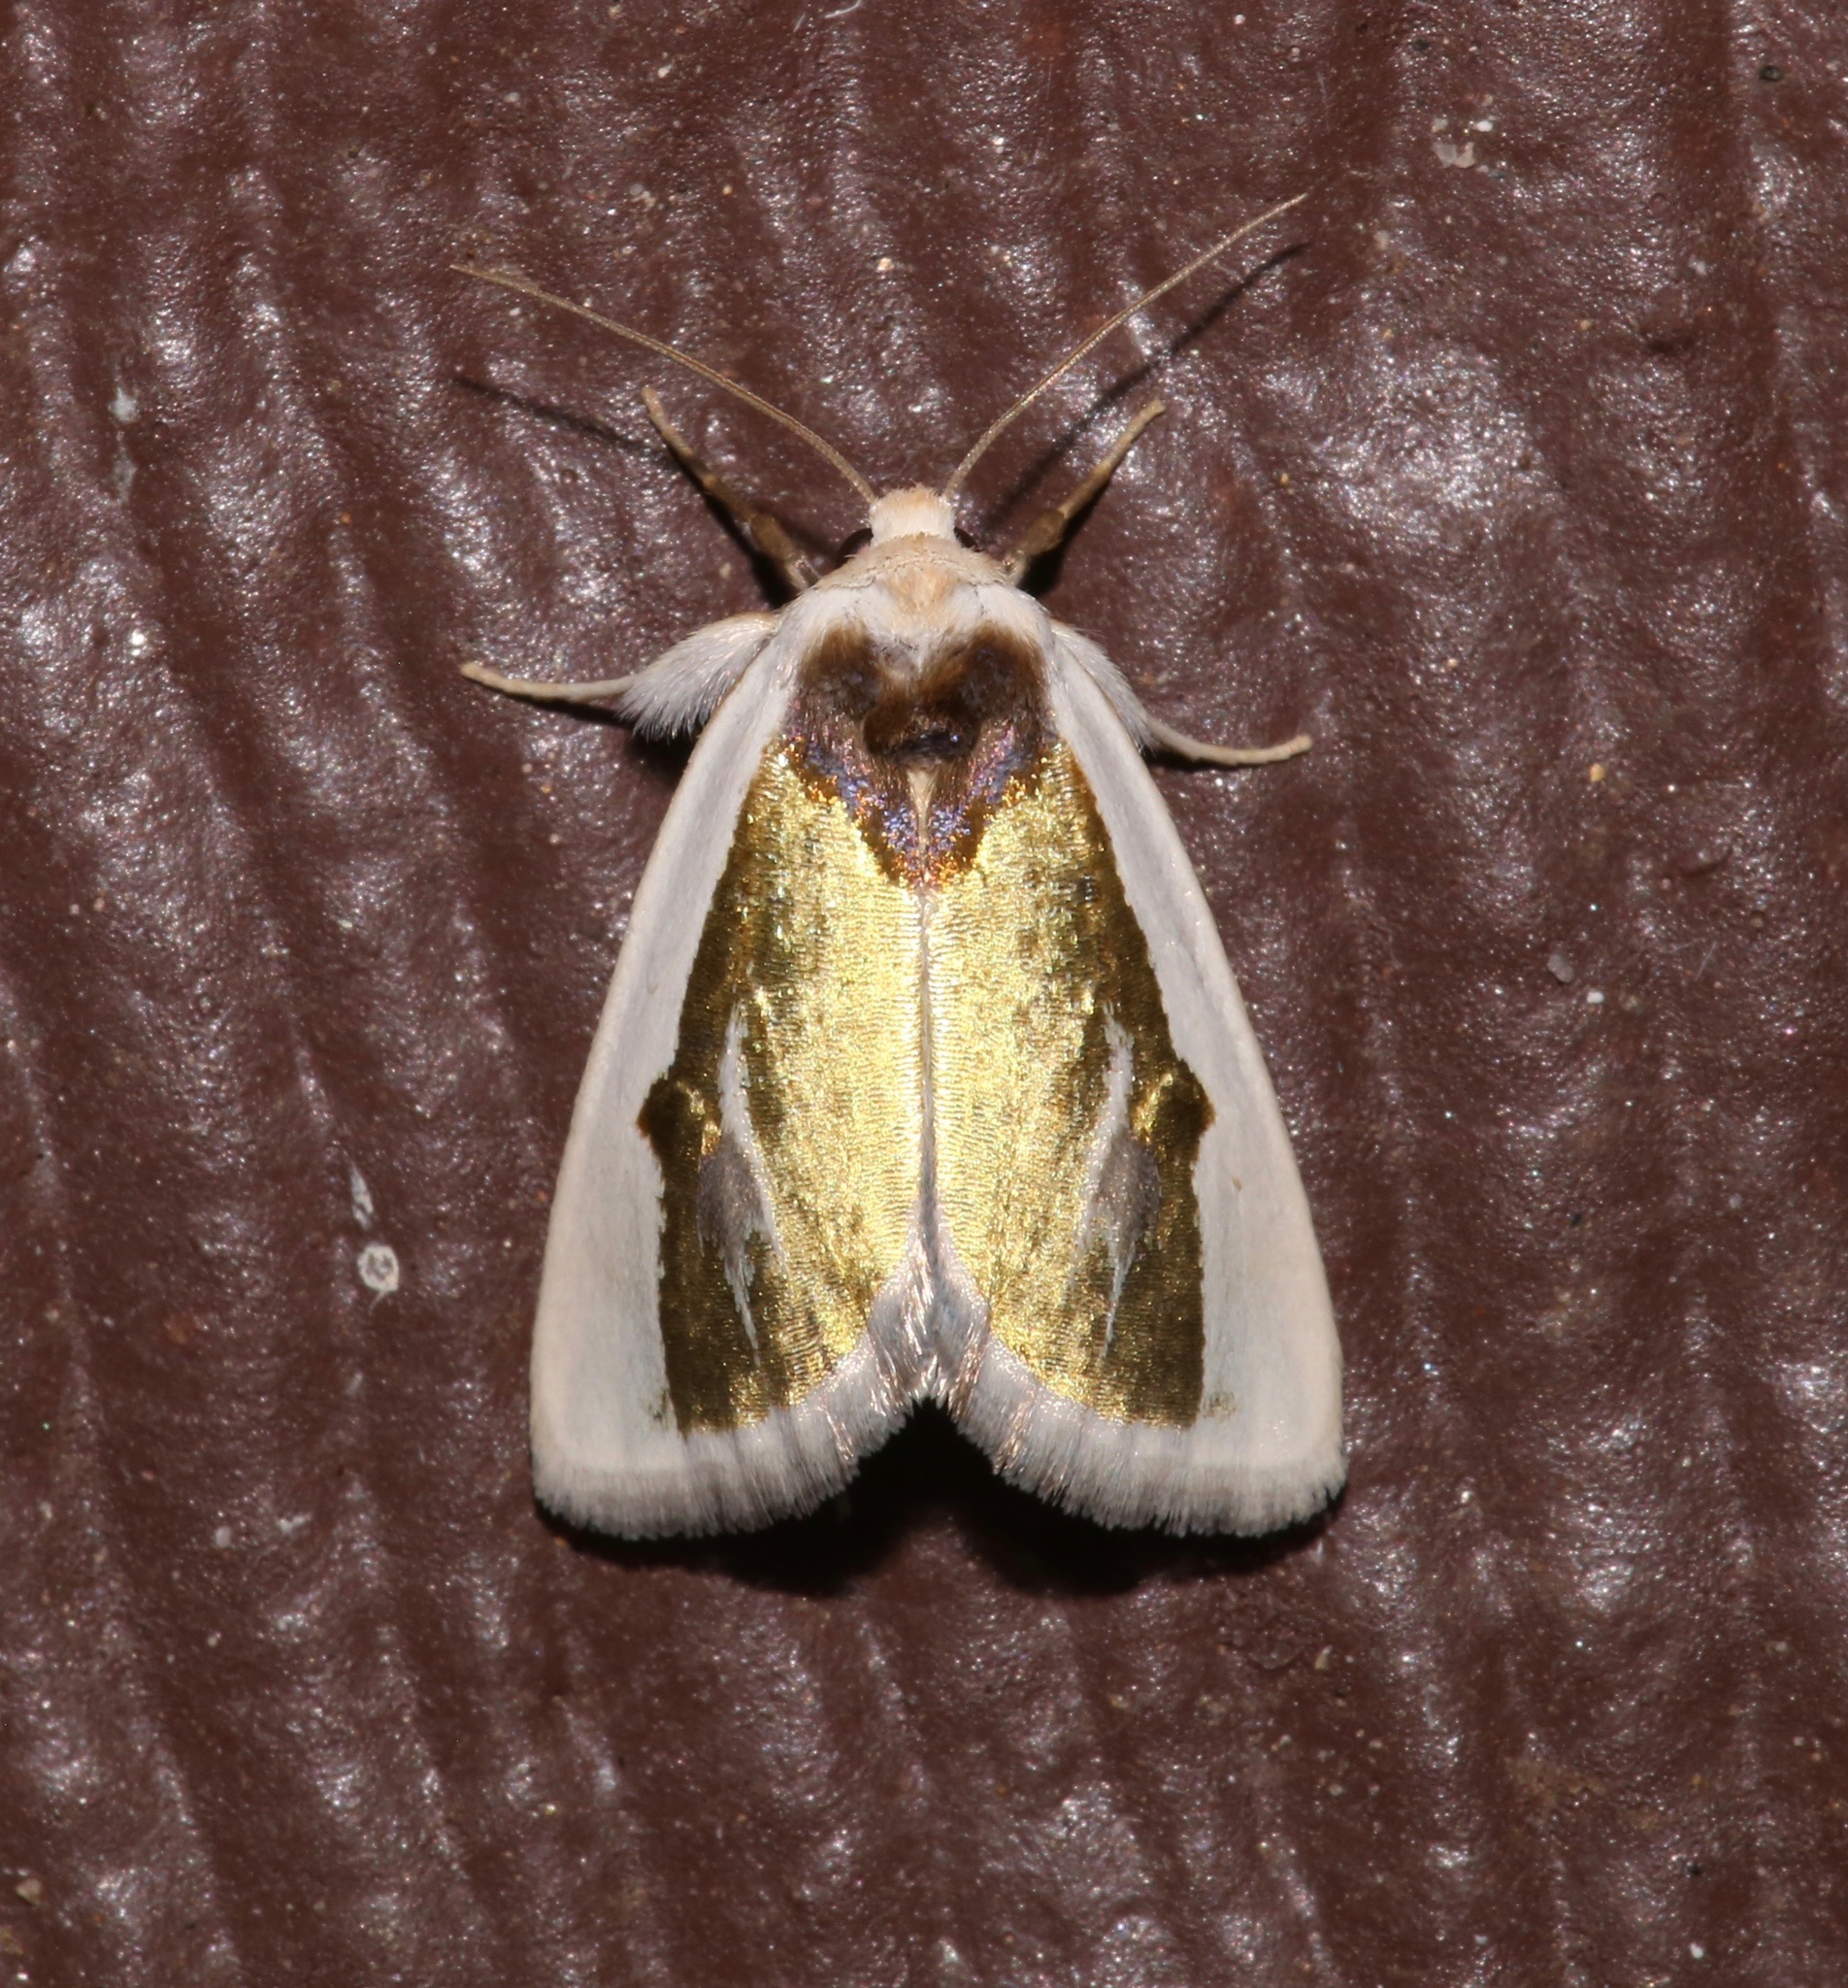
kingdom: Animalia
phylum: Arthropoda
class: Insecta
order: Lepidoptera
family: Noctuidae
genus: Neumoegenia
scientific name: Neumoegenia poetica
